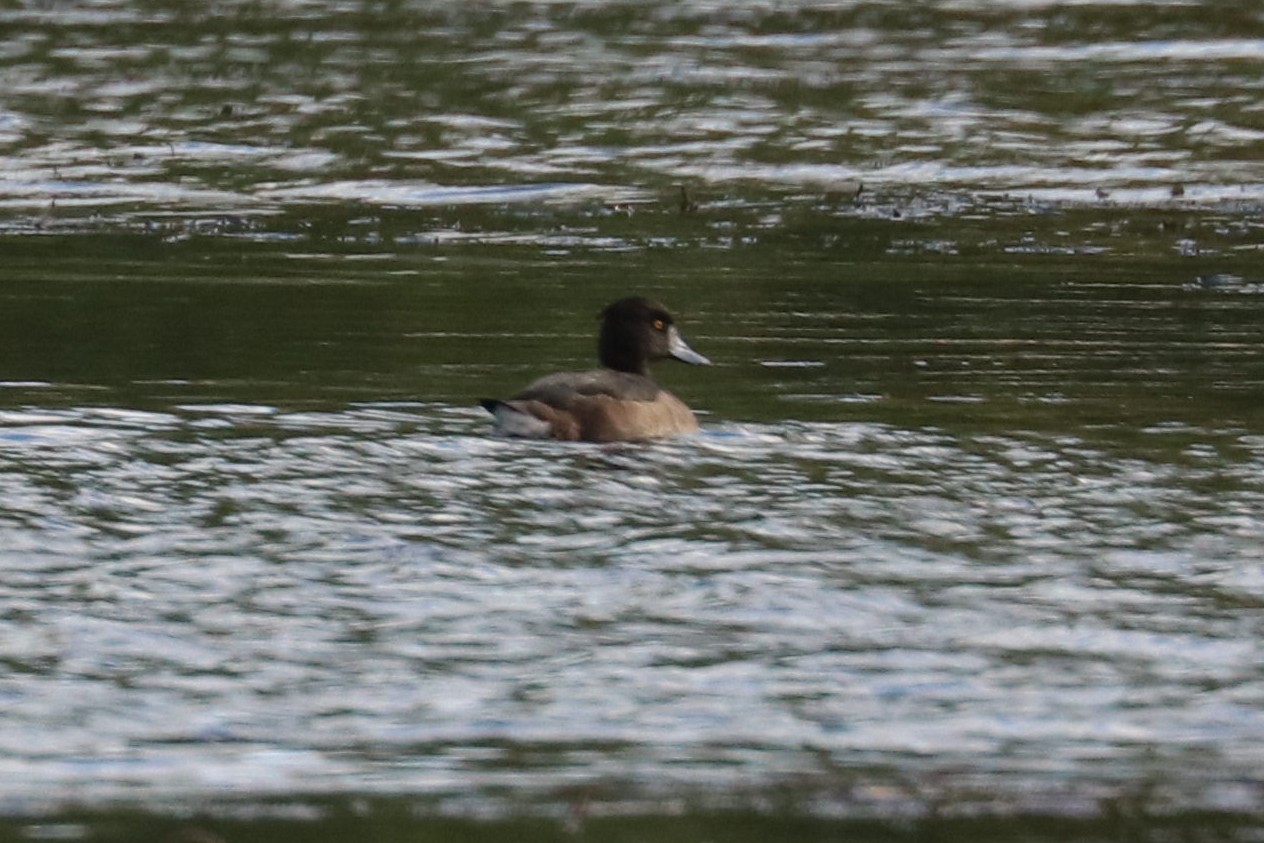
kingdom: Animalia
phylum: Chordata
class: Aves
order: Anseriformes
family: Anatidae
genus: Aythya
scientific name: Aythya fuligula
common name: Tufted duck
